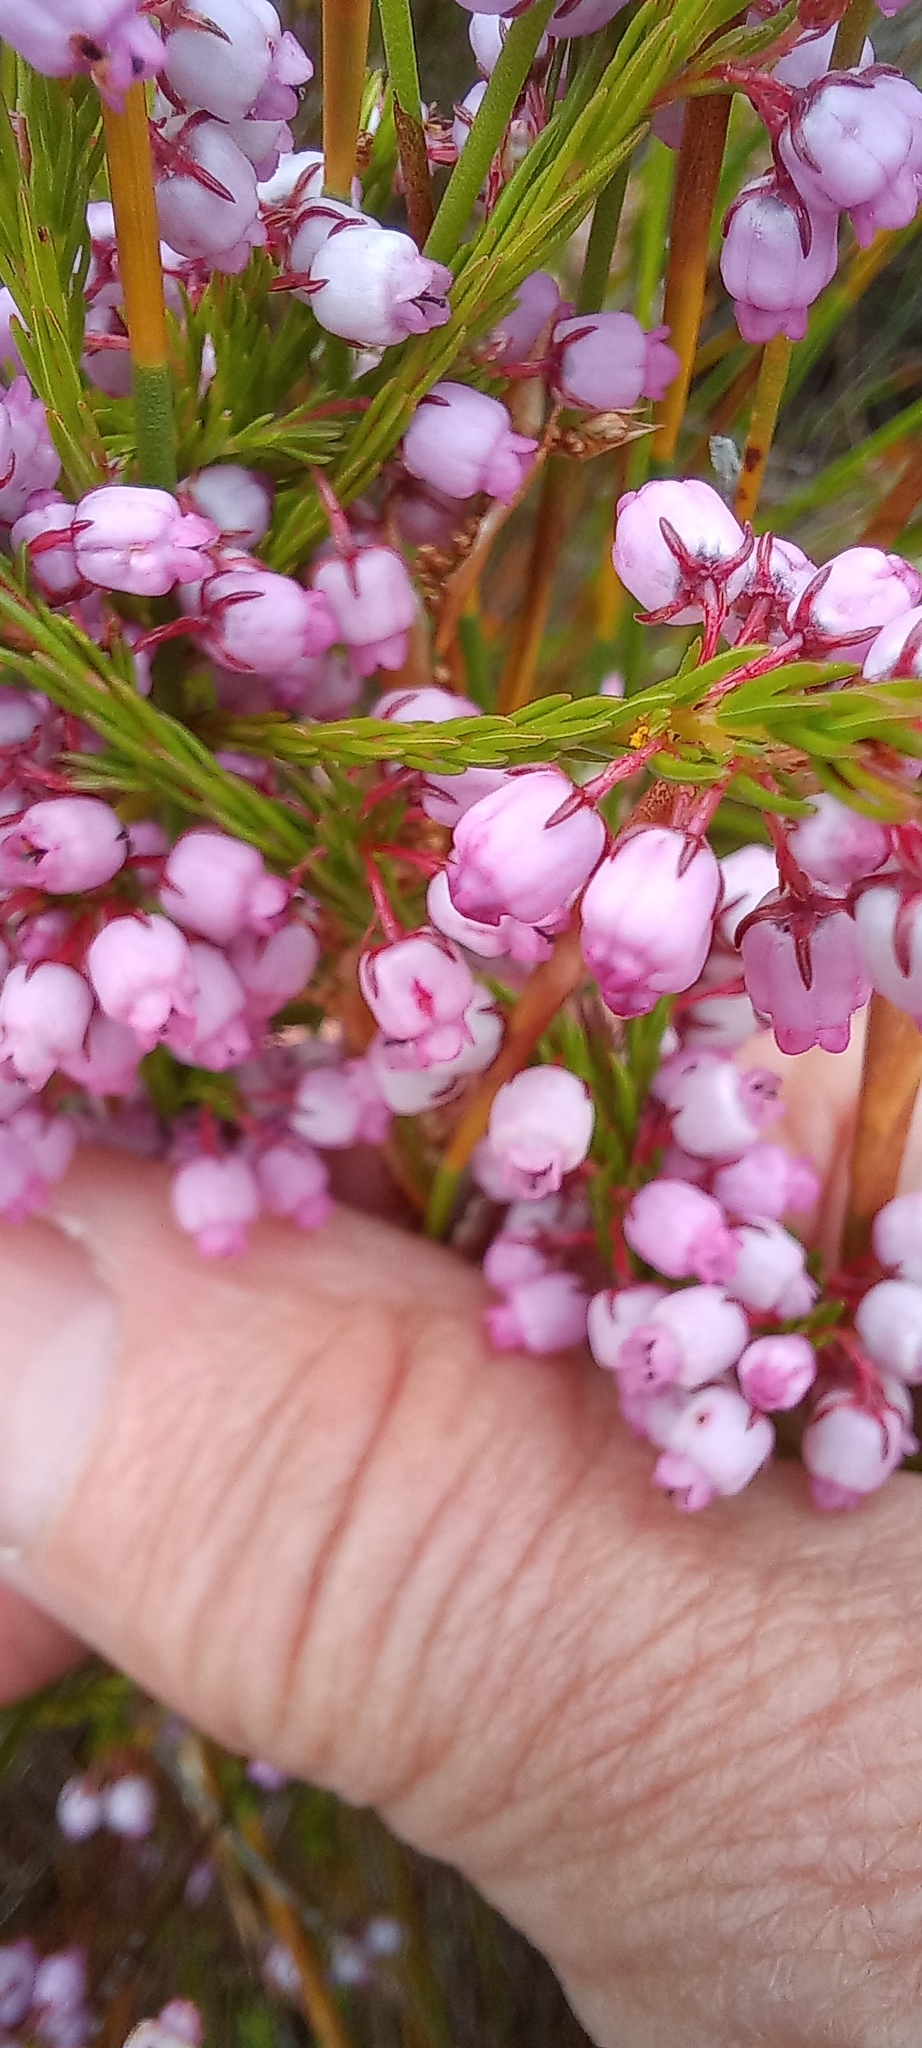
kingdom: Plantae
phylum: Tracheophyta
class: Magnoliopsida
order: Ericales
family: Ericaceae
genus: Erica
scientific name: Erica laeta
